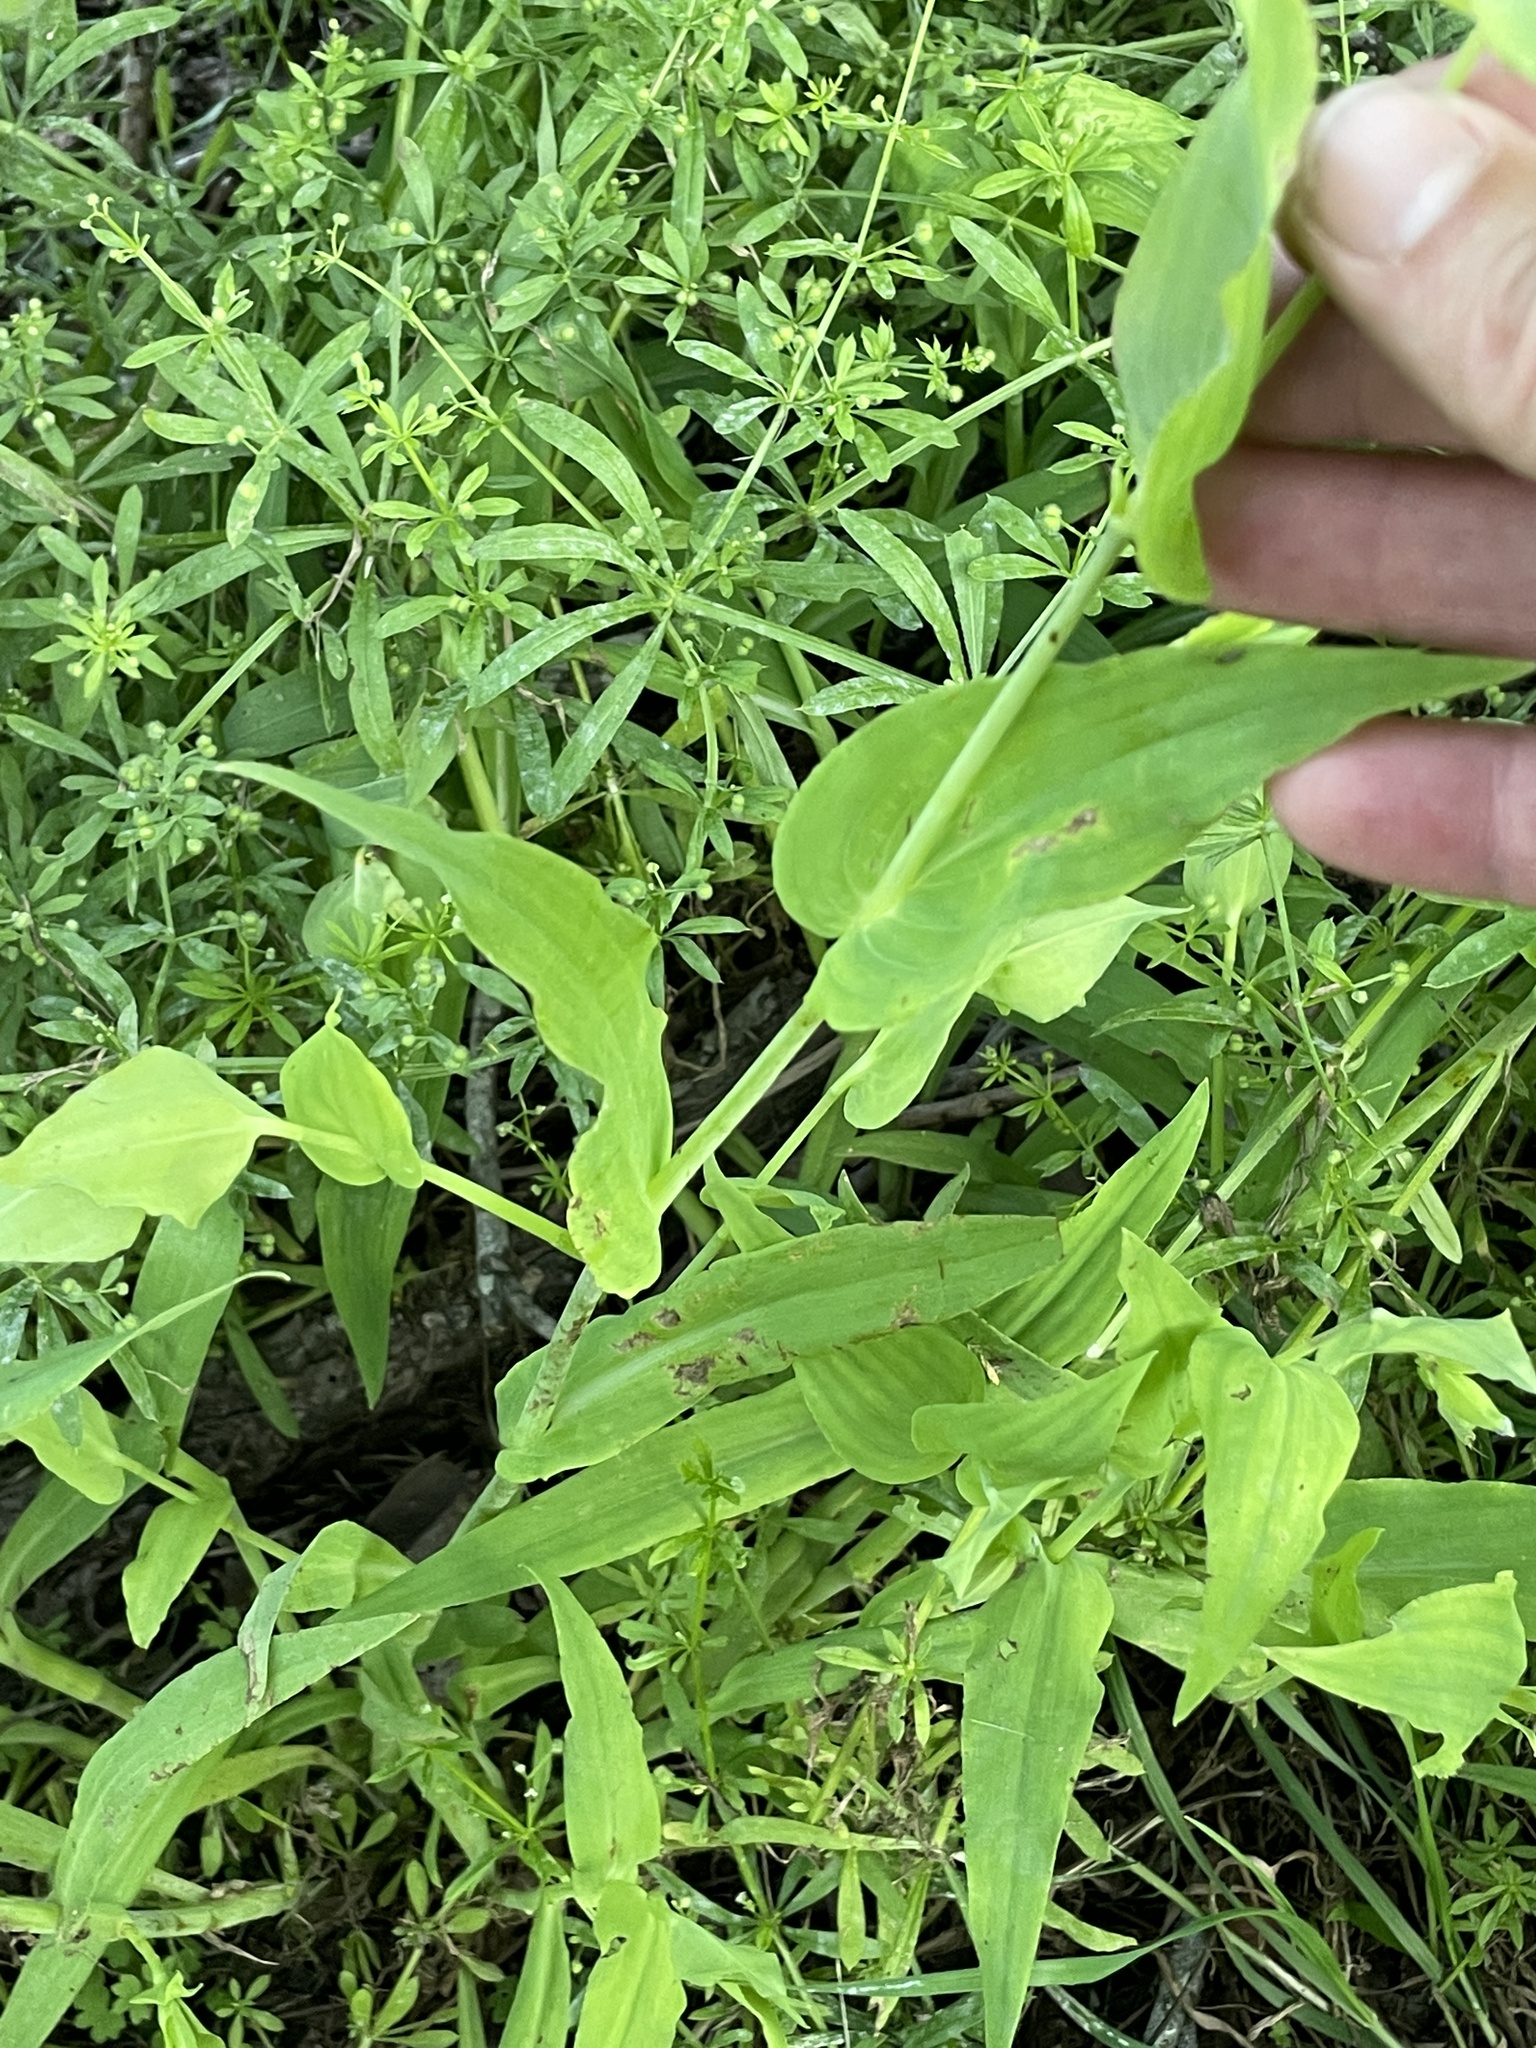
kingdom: Plantae
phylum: Tracheophyta
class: Liliopsida
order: Commelinales
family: Commelinaceae
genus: Tinantia
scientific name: Tinantia anomala
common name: False dayflower
